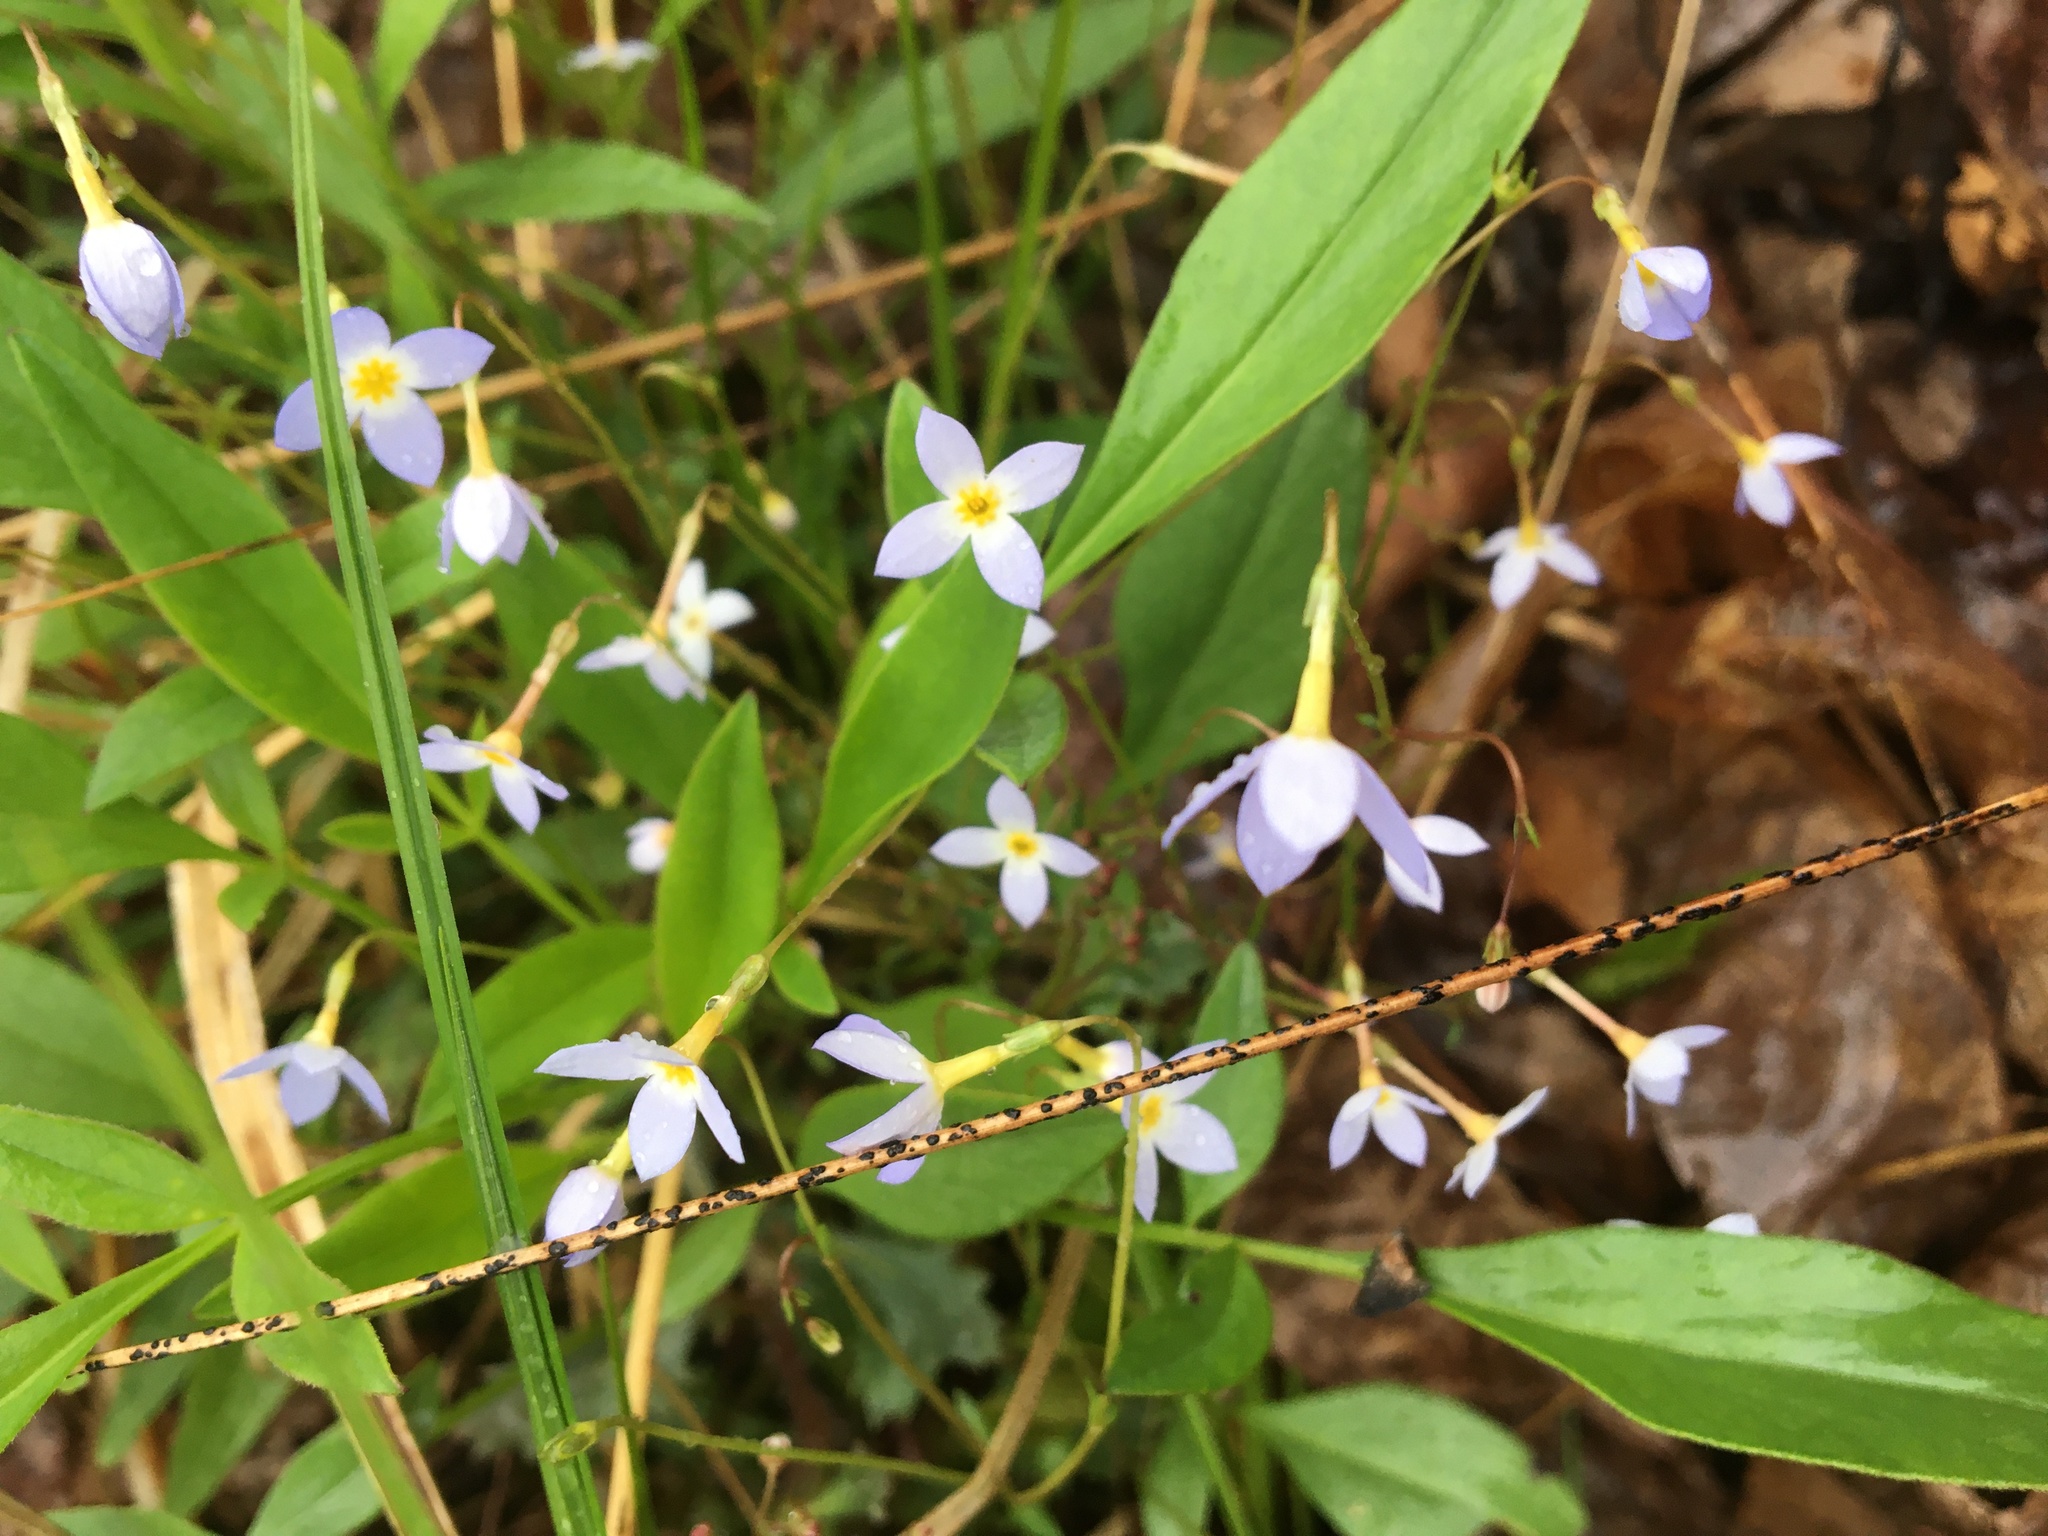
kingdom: Plantae
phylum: Tracheophyta
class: Magnoliopsida
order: Gentianales
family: Rubiaceae
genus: Houstonia
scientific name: Houstonia caerulea
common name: Bluets
